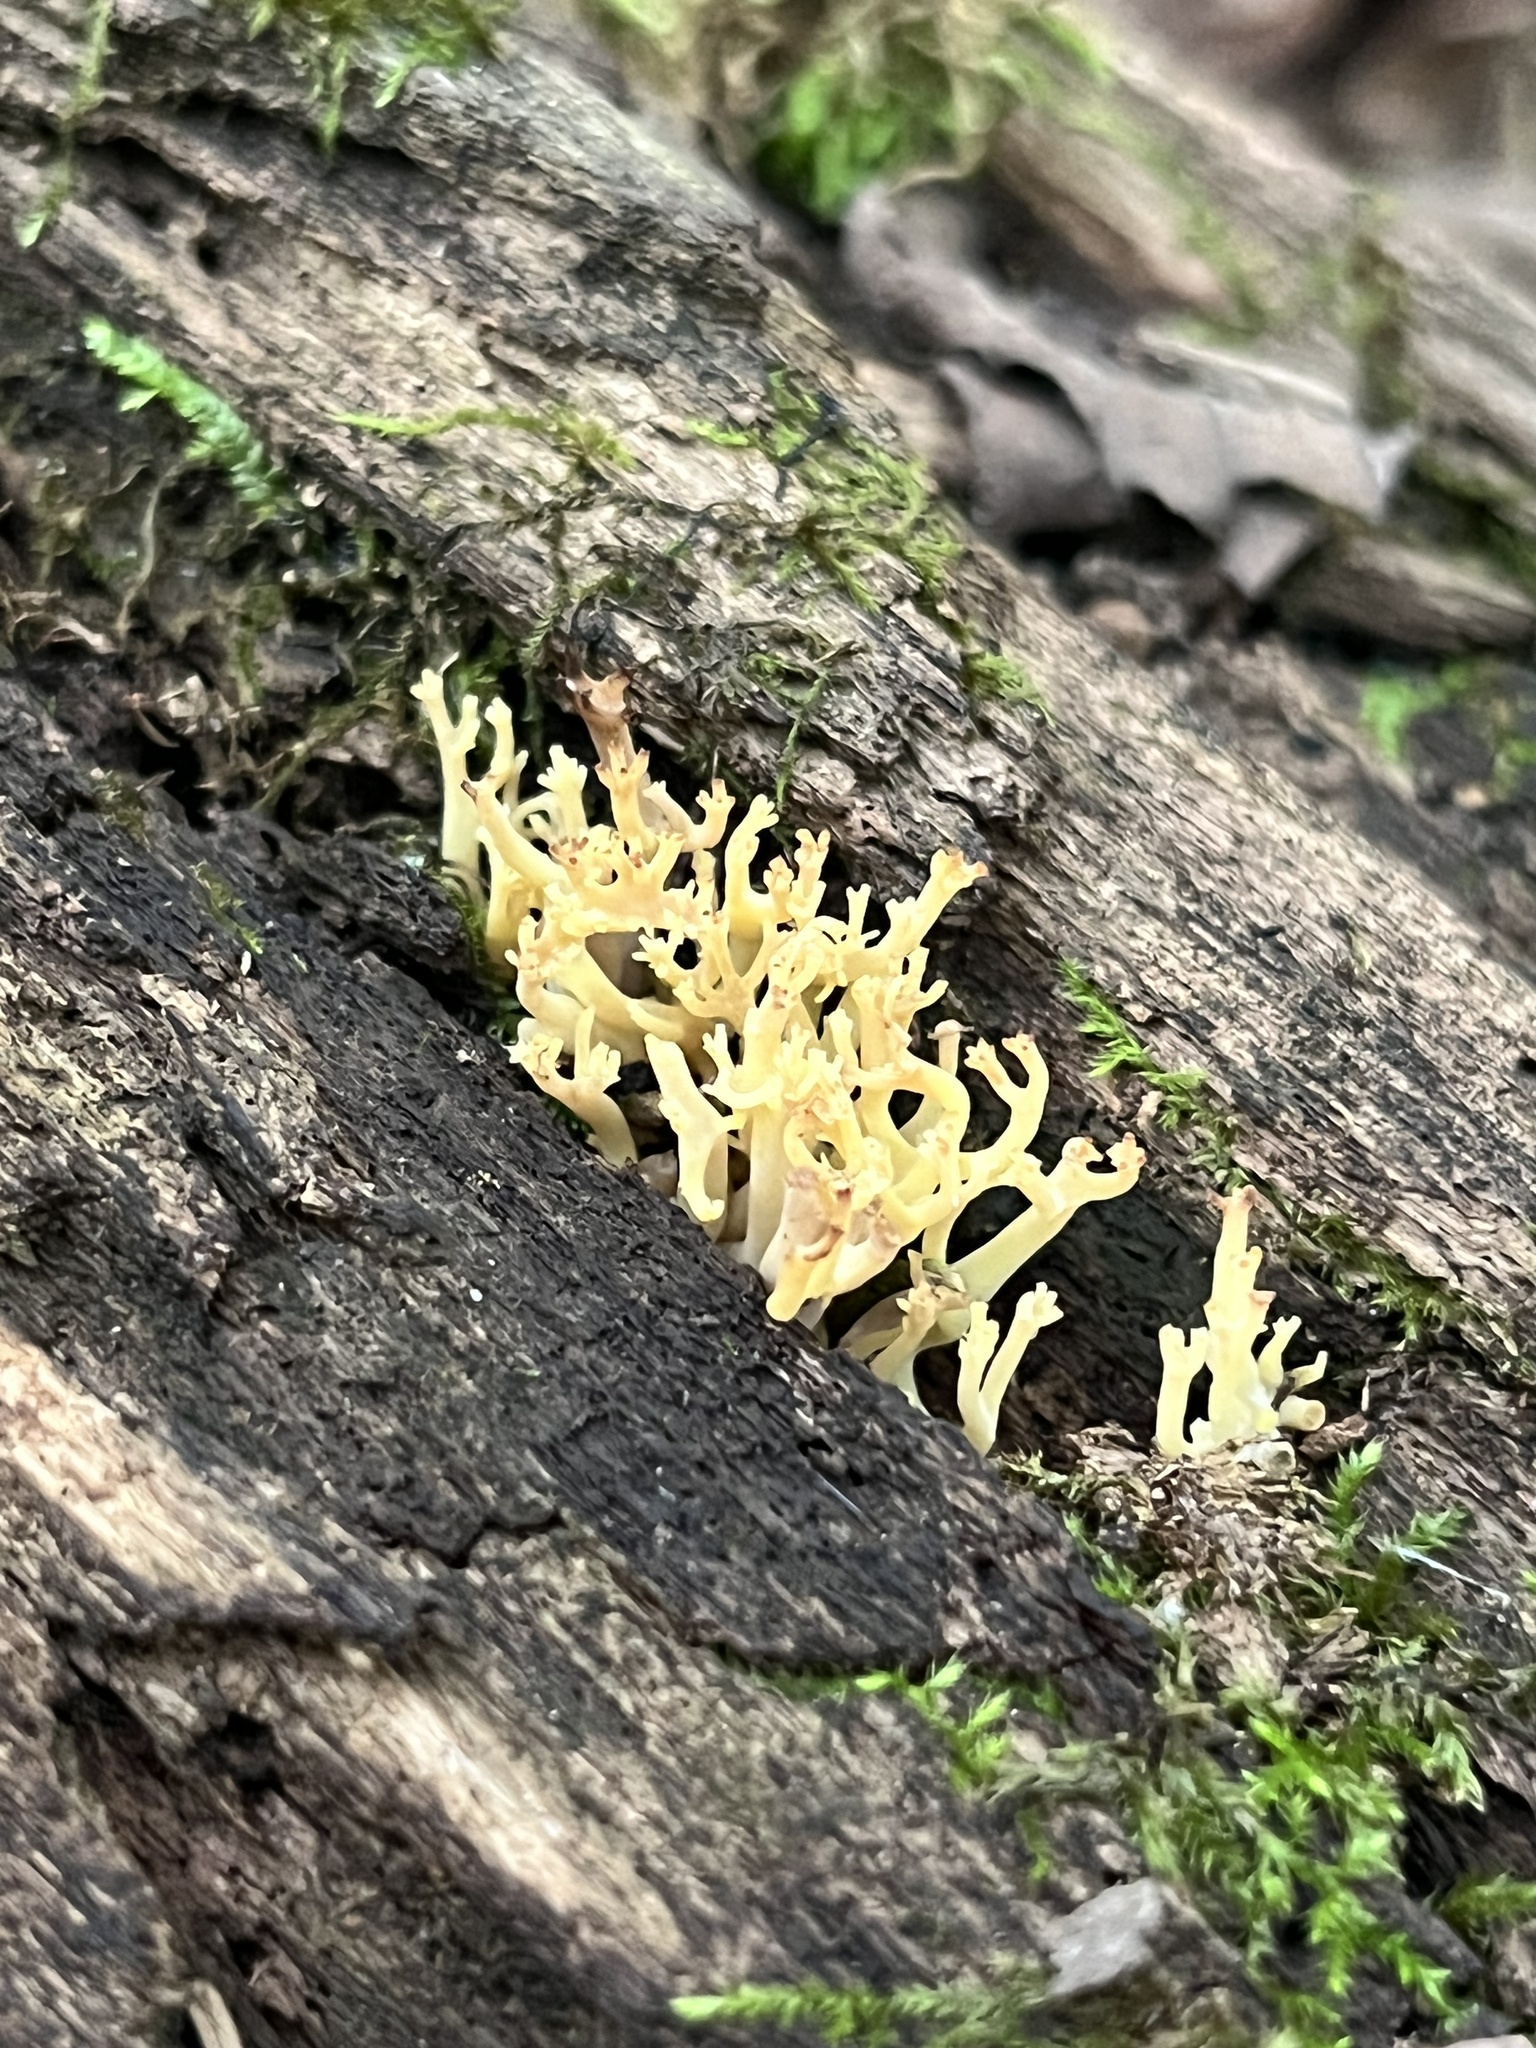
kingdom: Fungi
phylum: Basidiomycota
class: Agaricomycetes
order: Russulales
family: Auriscalpiaceae
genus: Artomyces
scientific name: Artomyces pyxidatus
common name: Crown-tipped coral fungus
